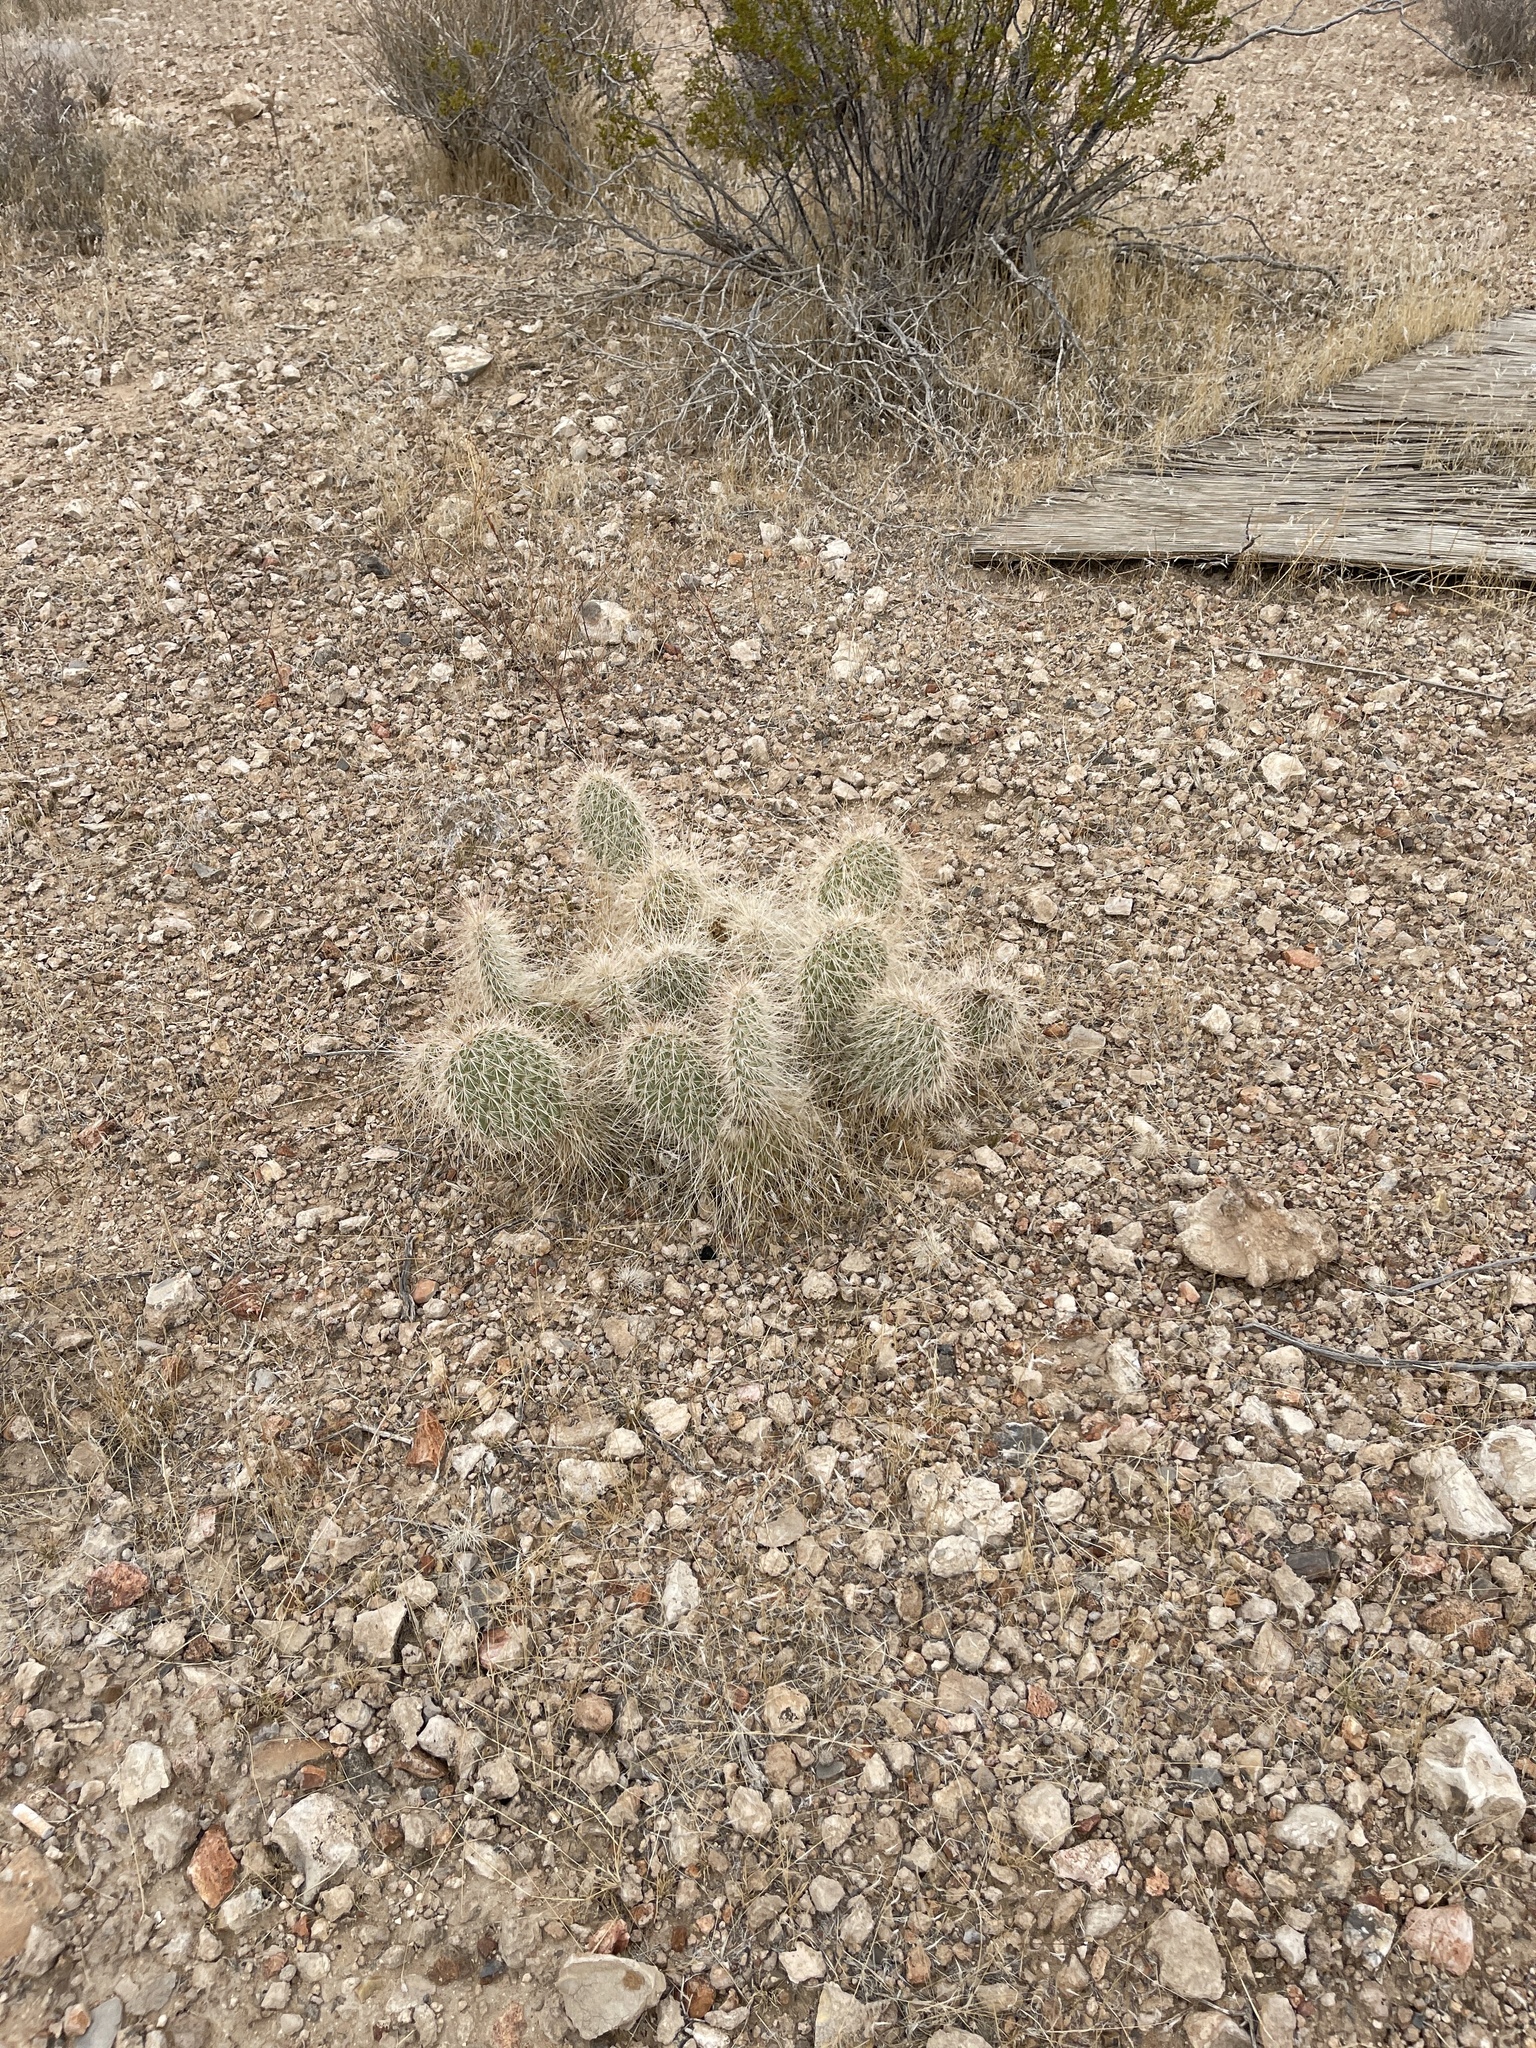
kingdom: Plantae
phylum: Tracheophyta
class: Magnoliopsida
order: Caryophyllales
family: Cactaceae
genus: Opuntia
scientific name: Opuntia polyacantha
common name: Plains prickly-pear
